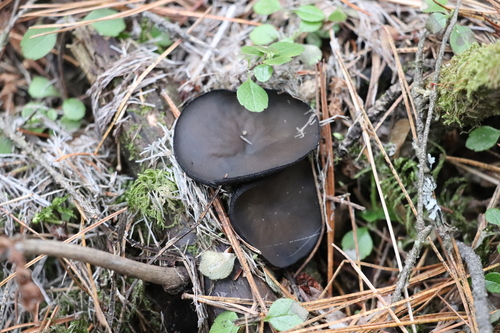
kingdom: Fungi
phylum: Ascomycota
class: Pezizomycetes
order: Pezizales
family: Sarcosomataceae
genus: Pseudoplectania
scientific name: Pseudoplectania melaena
